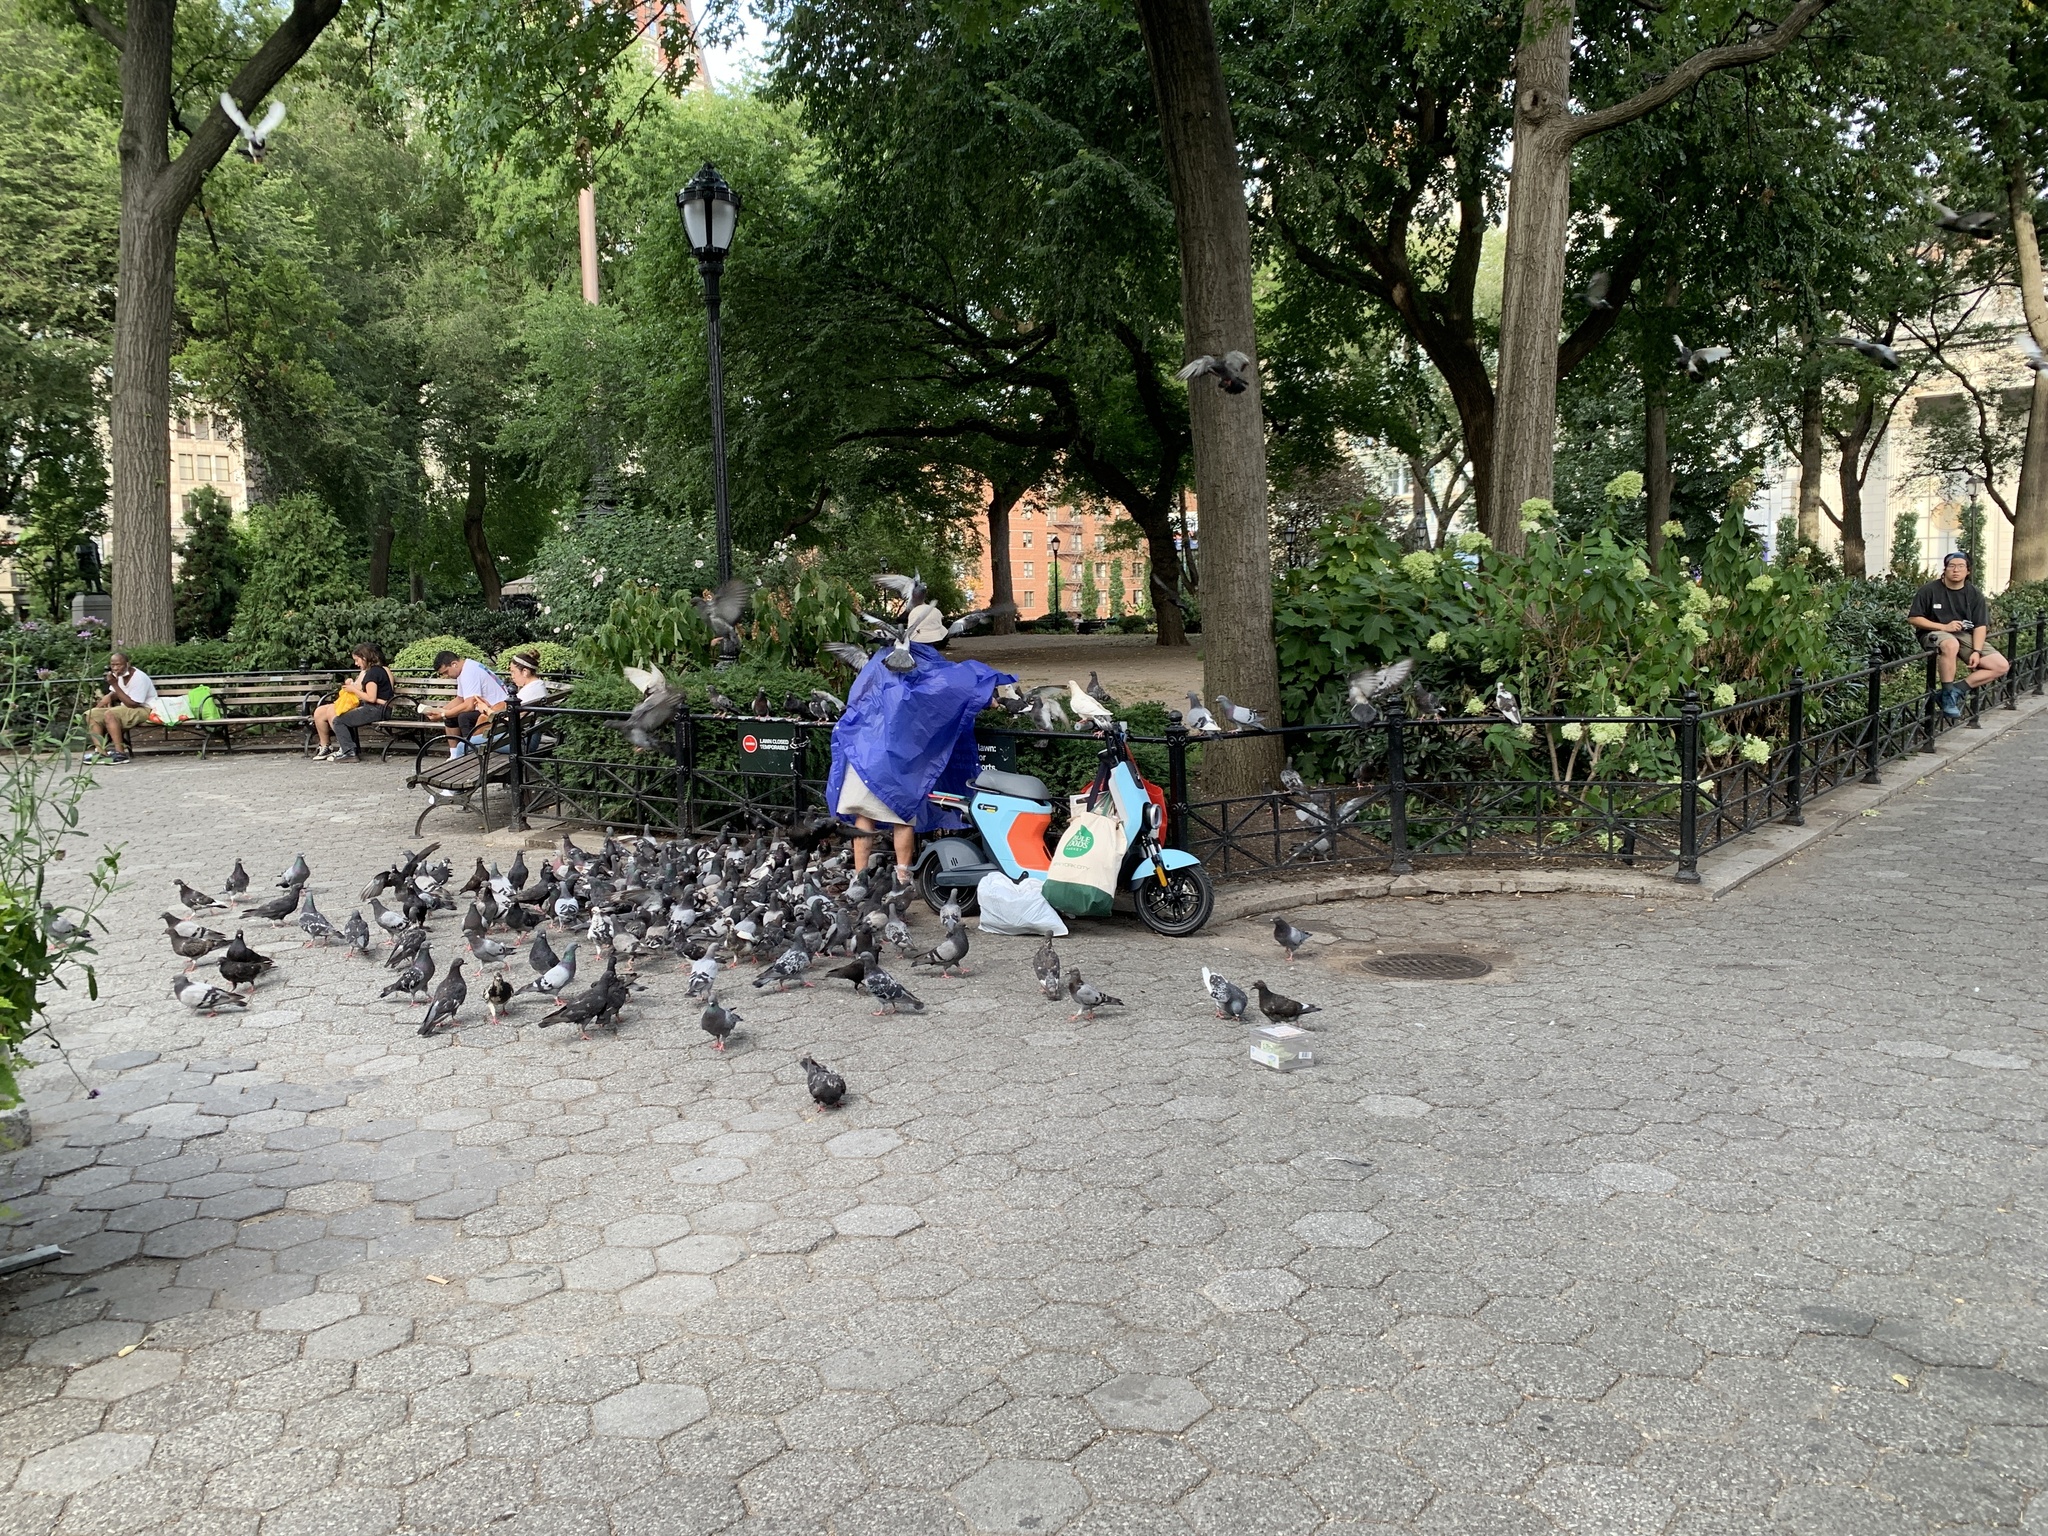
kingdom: Animalia
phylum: Chordata
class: Aves
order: Columbiformes
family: Columbidae
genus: Columba
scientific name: Columba livia
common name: Rock pigeon
